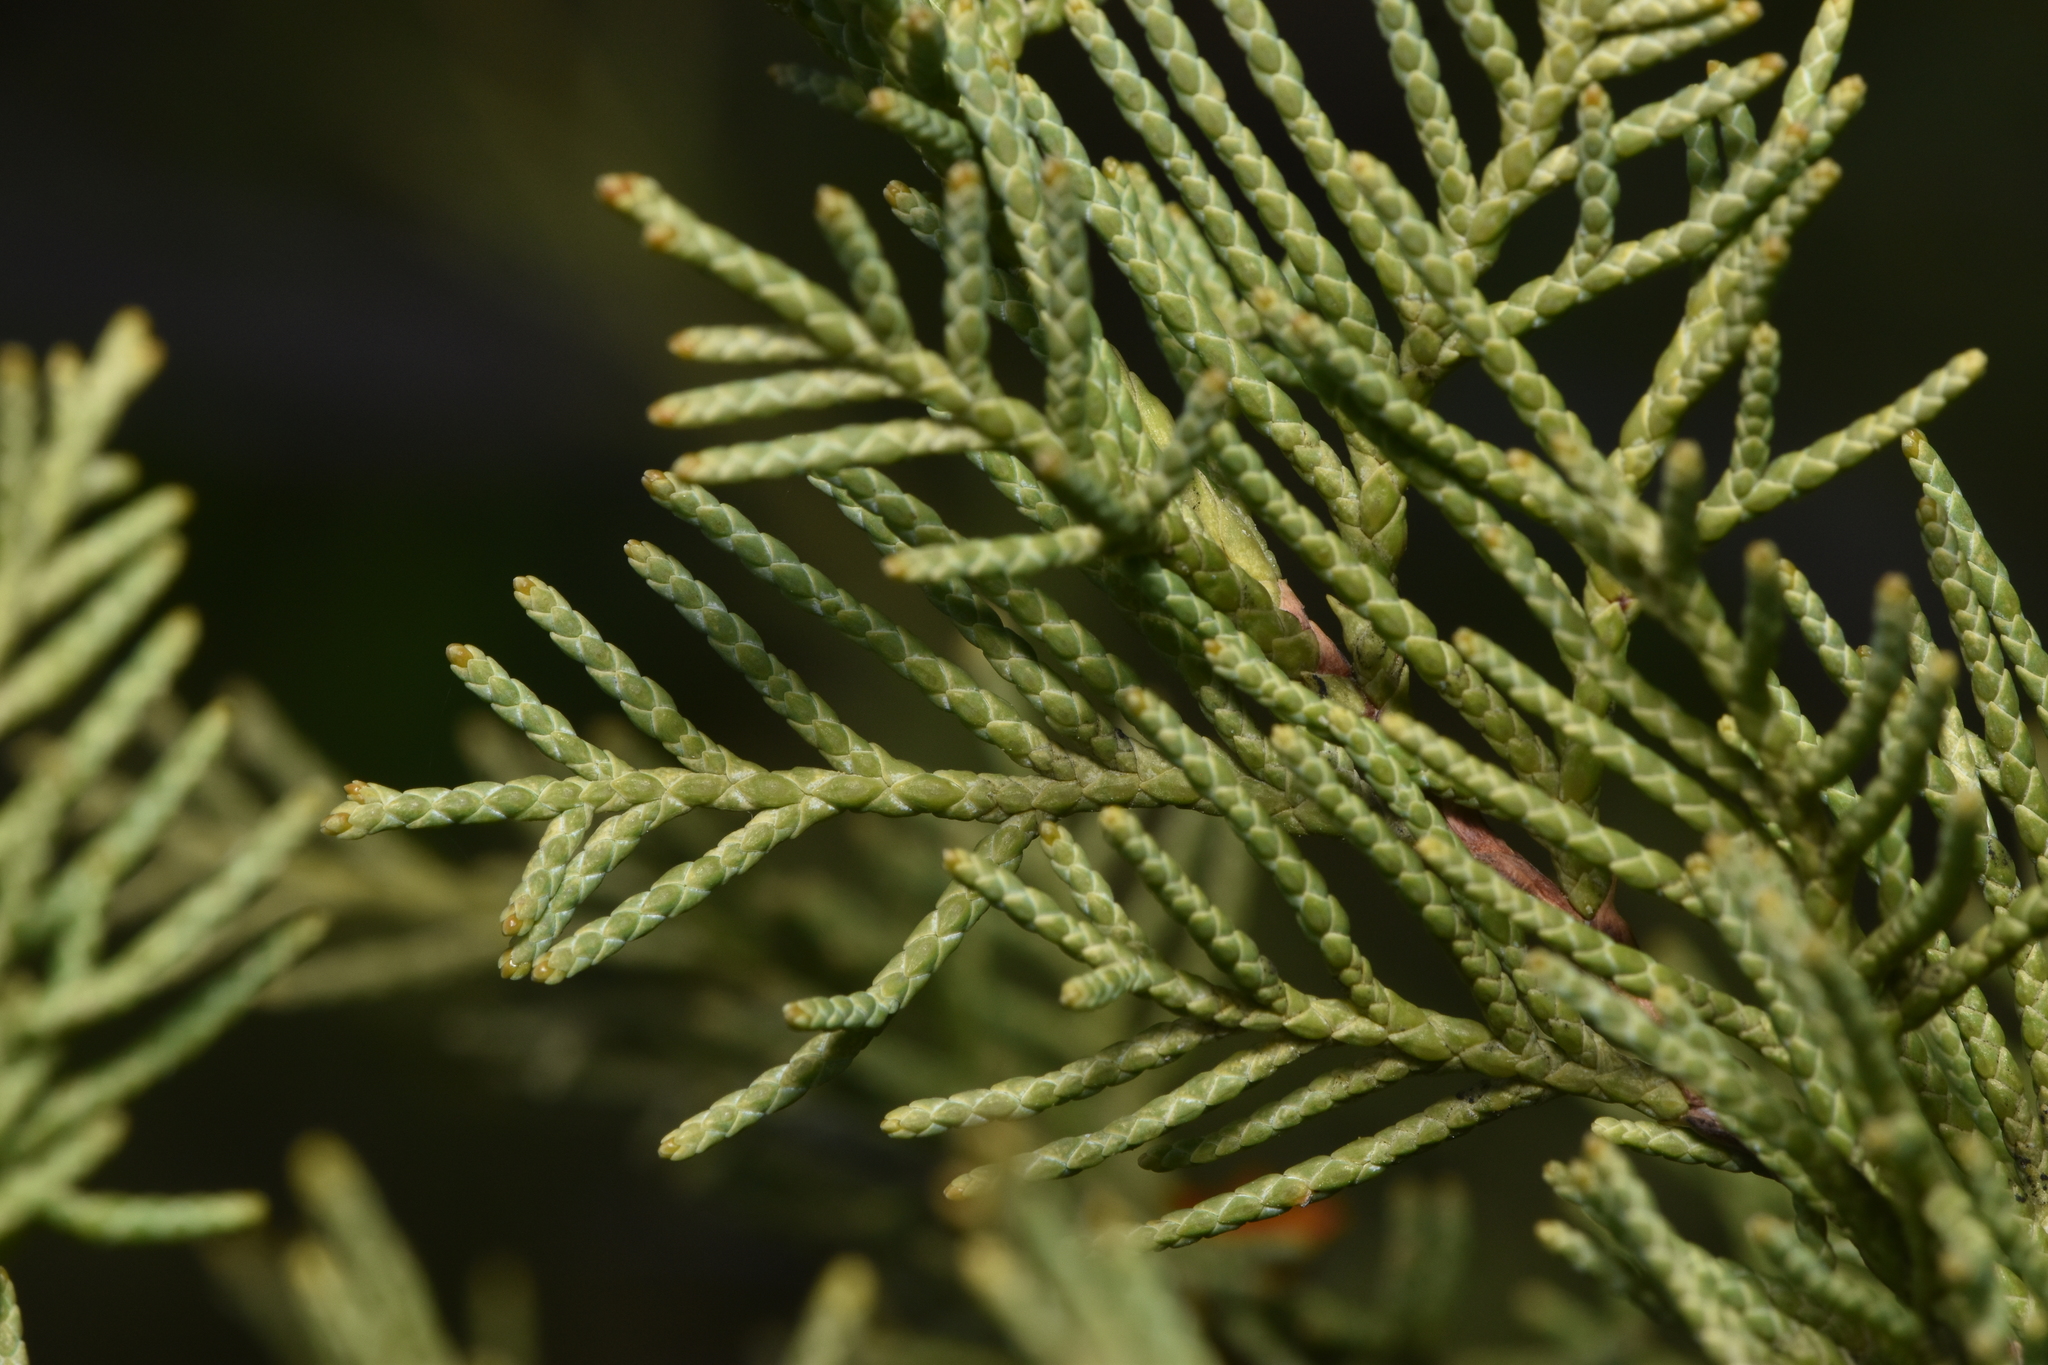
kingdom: Plantae
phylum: Tracheophyta
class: Pinopsida
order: Pinales
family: Cupressaceae
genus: Juniperus
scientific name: Juniperus scopulorum
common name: Rocky mountain juniper
